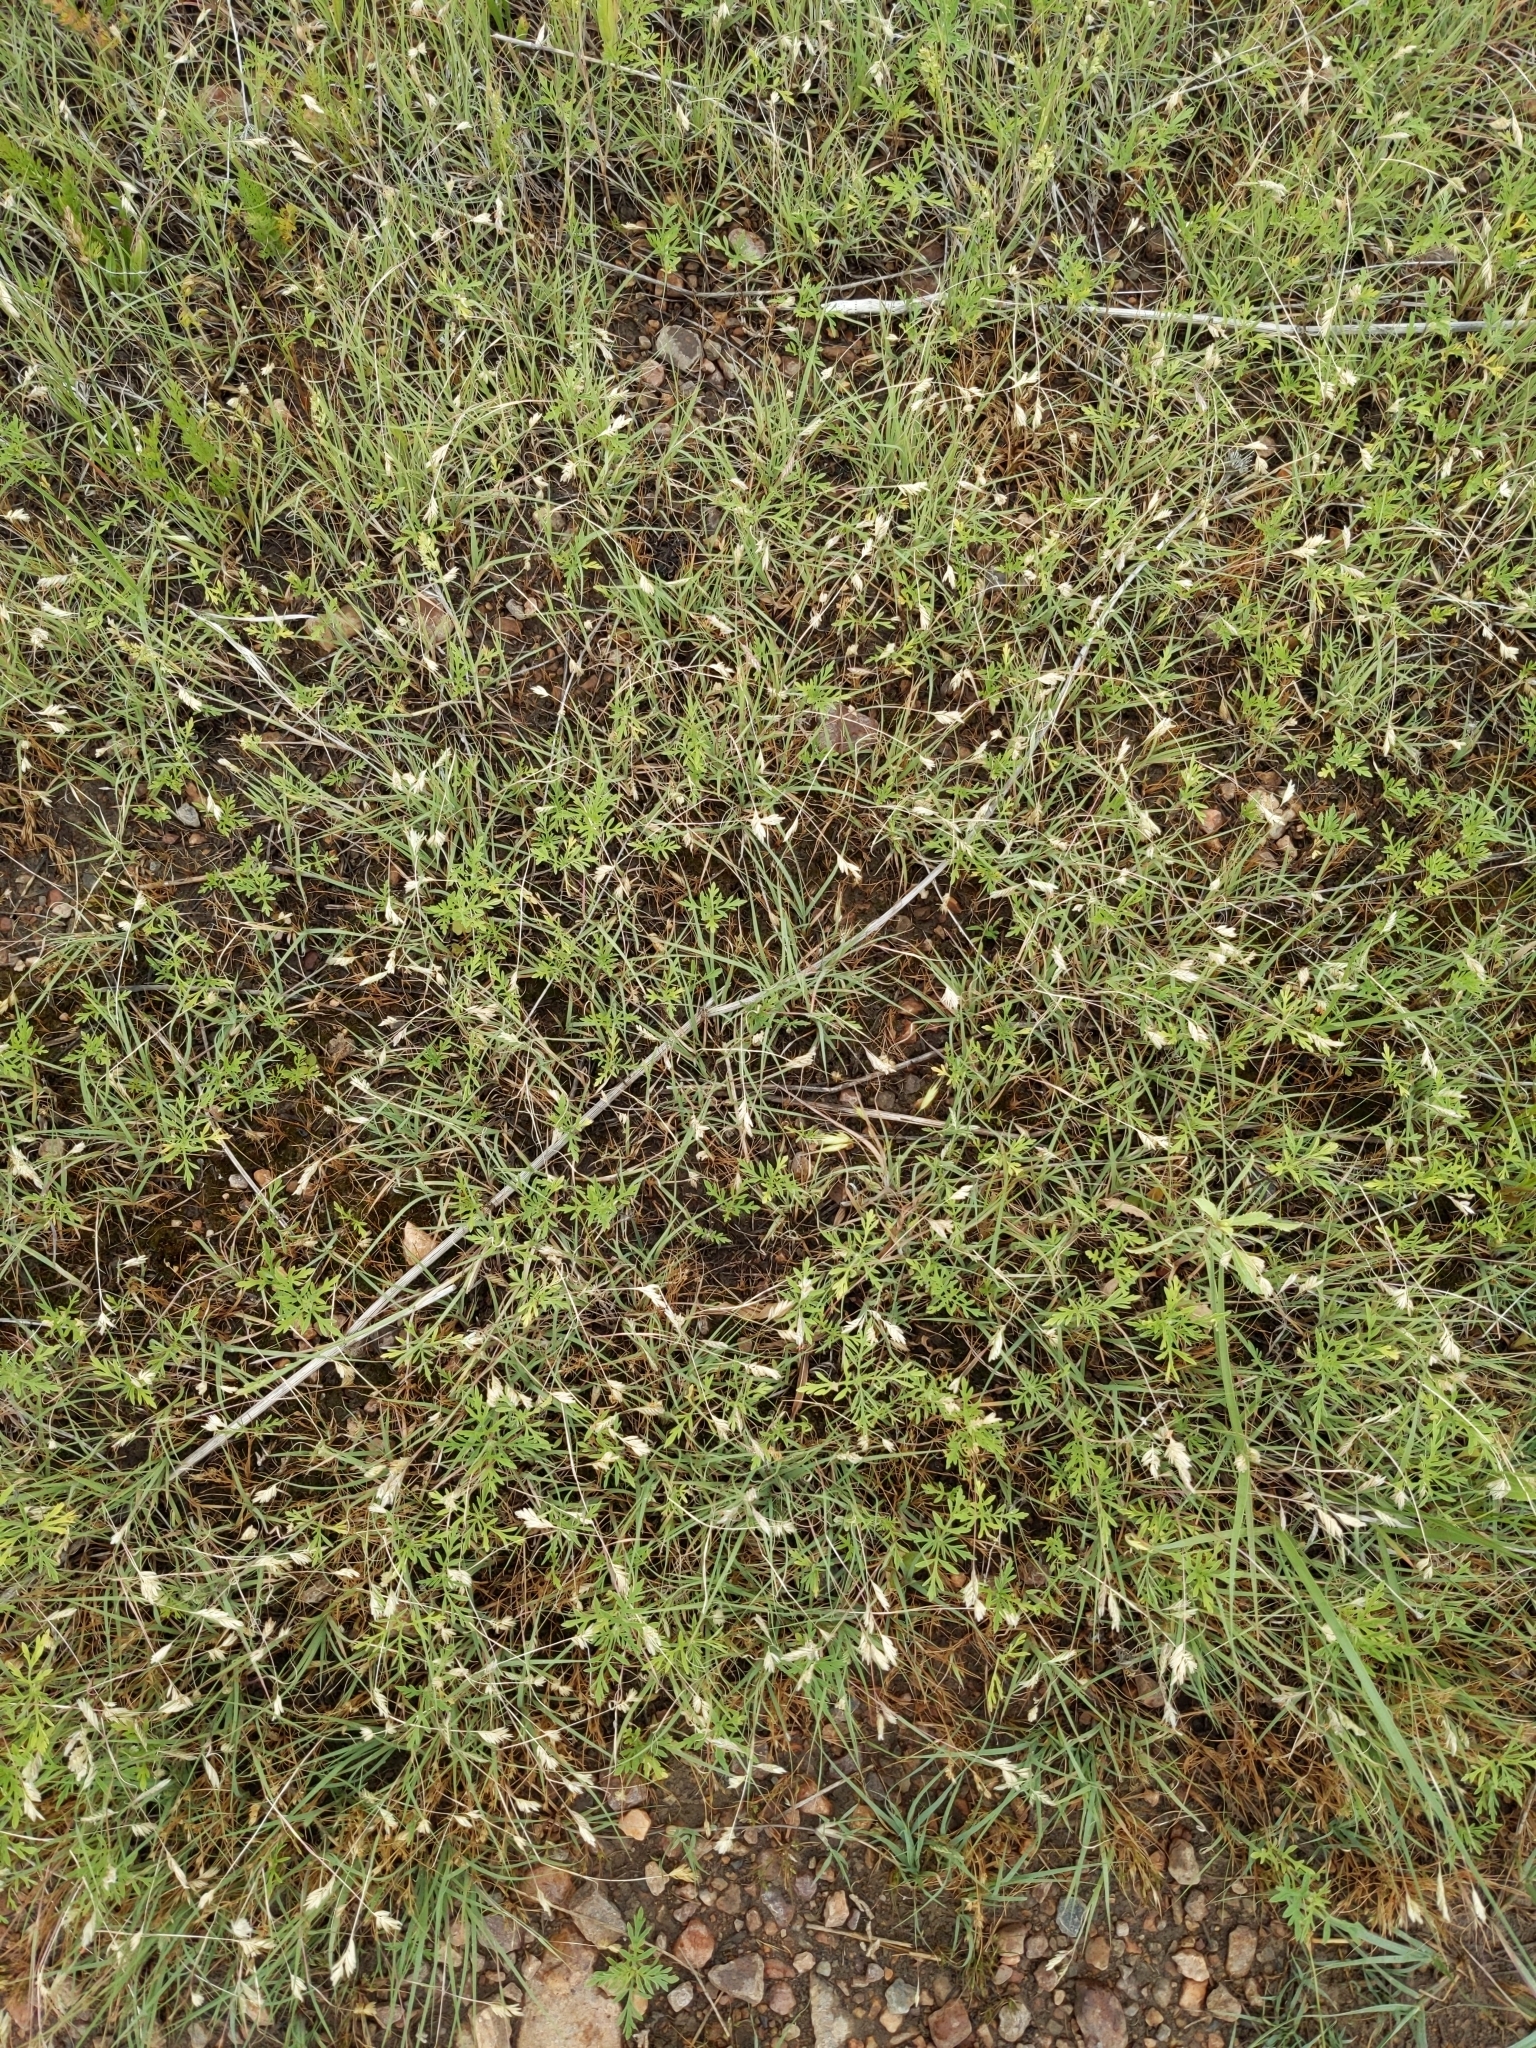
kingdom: Plantae
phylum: Tracheophyta
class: Liliopsida
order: Poales
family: Poaceae
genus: Bouteloua
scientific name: Bouteloua dactyloides
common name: Buffalo grass
